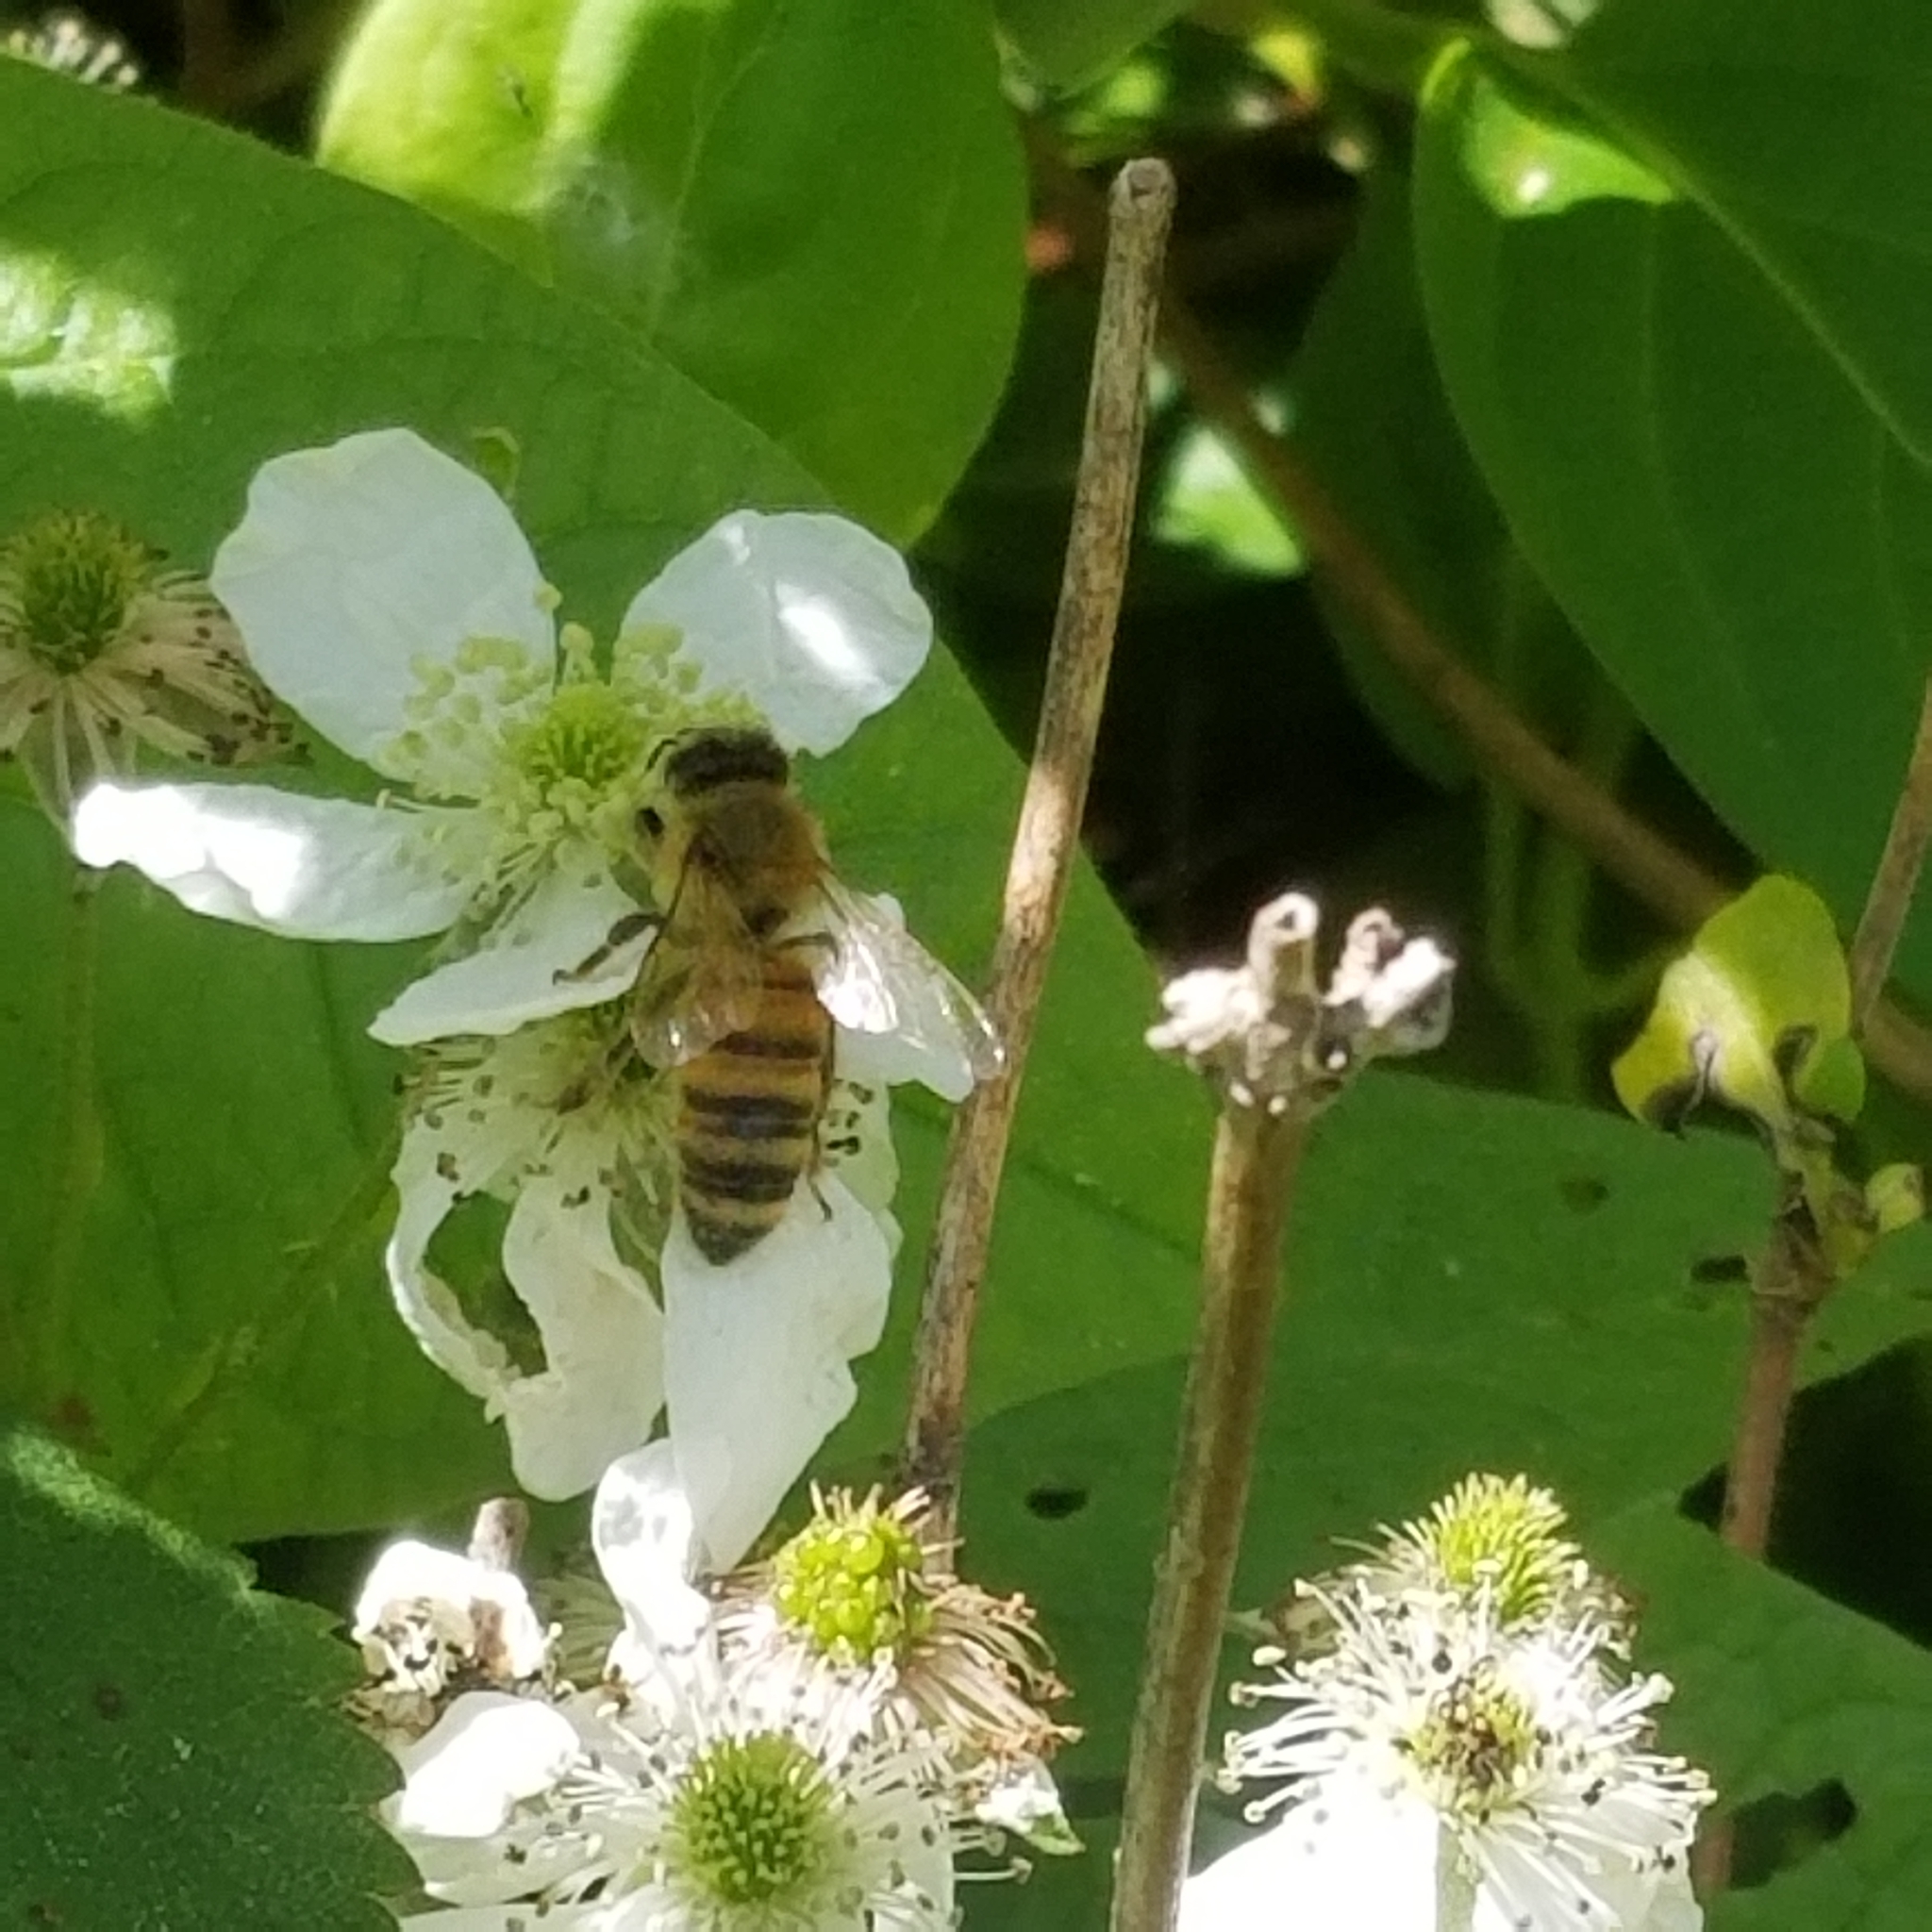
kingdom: Animalia
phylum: Arthropoda
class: Insecta
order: Hymenoptera
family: Apidae
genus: Apis
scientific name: Apis mellifera
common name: Honey bee
